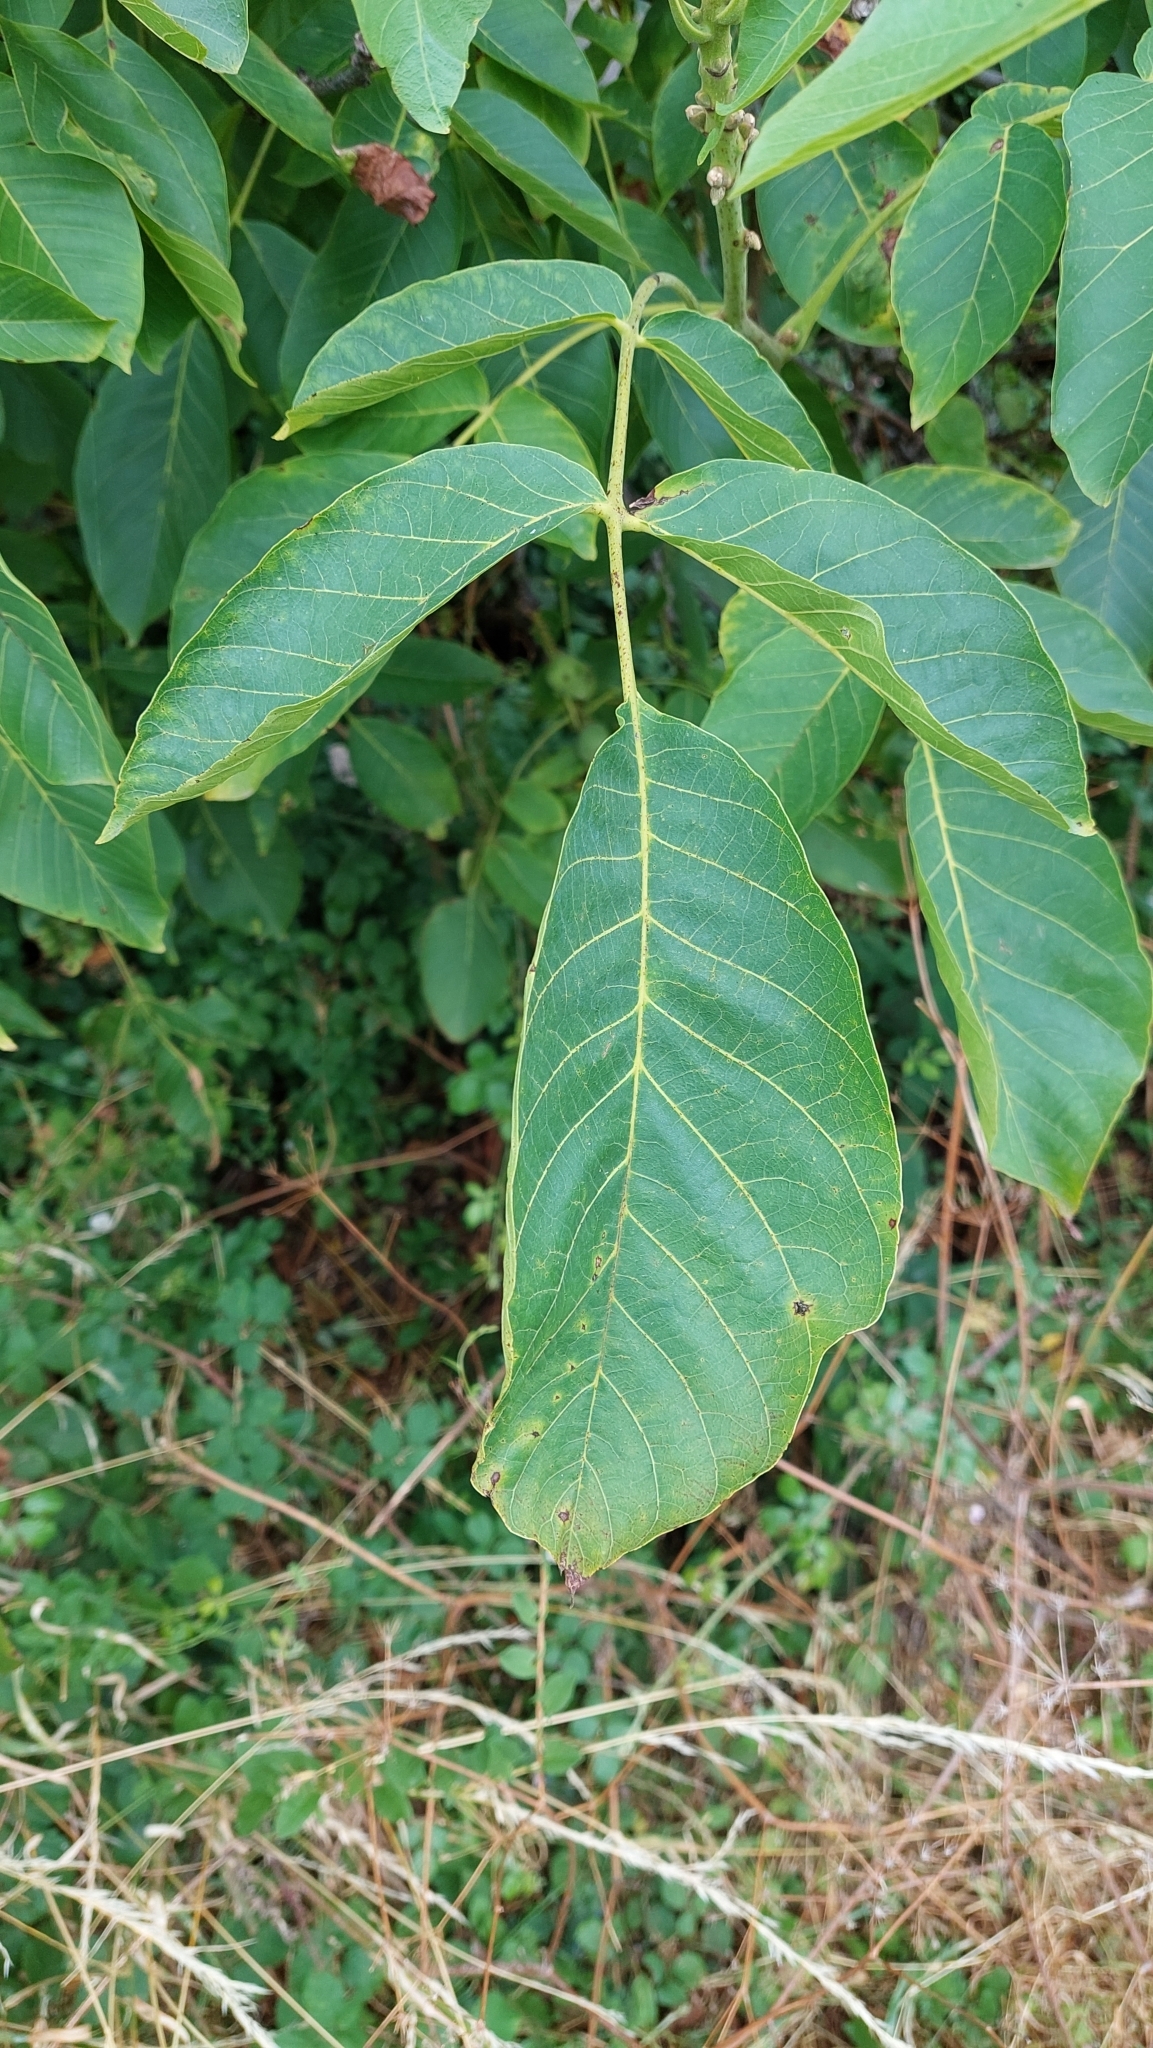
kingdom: Plantae
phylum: Tracheophyta
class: Magnoliopsida
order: Fagales
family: Juglandaceae
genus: Juglans
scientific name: Juglans regia
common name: Walnut
